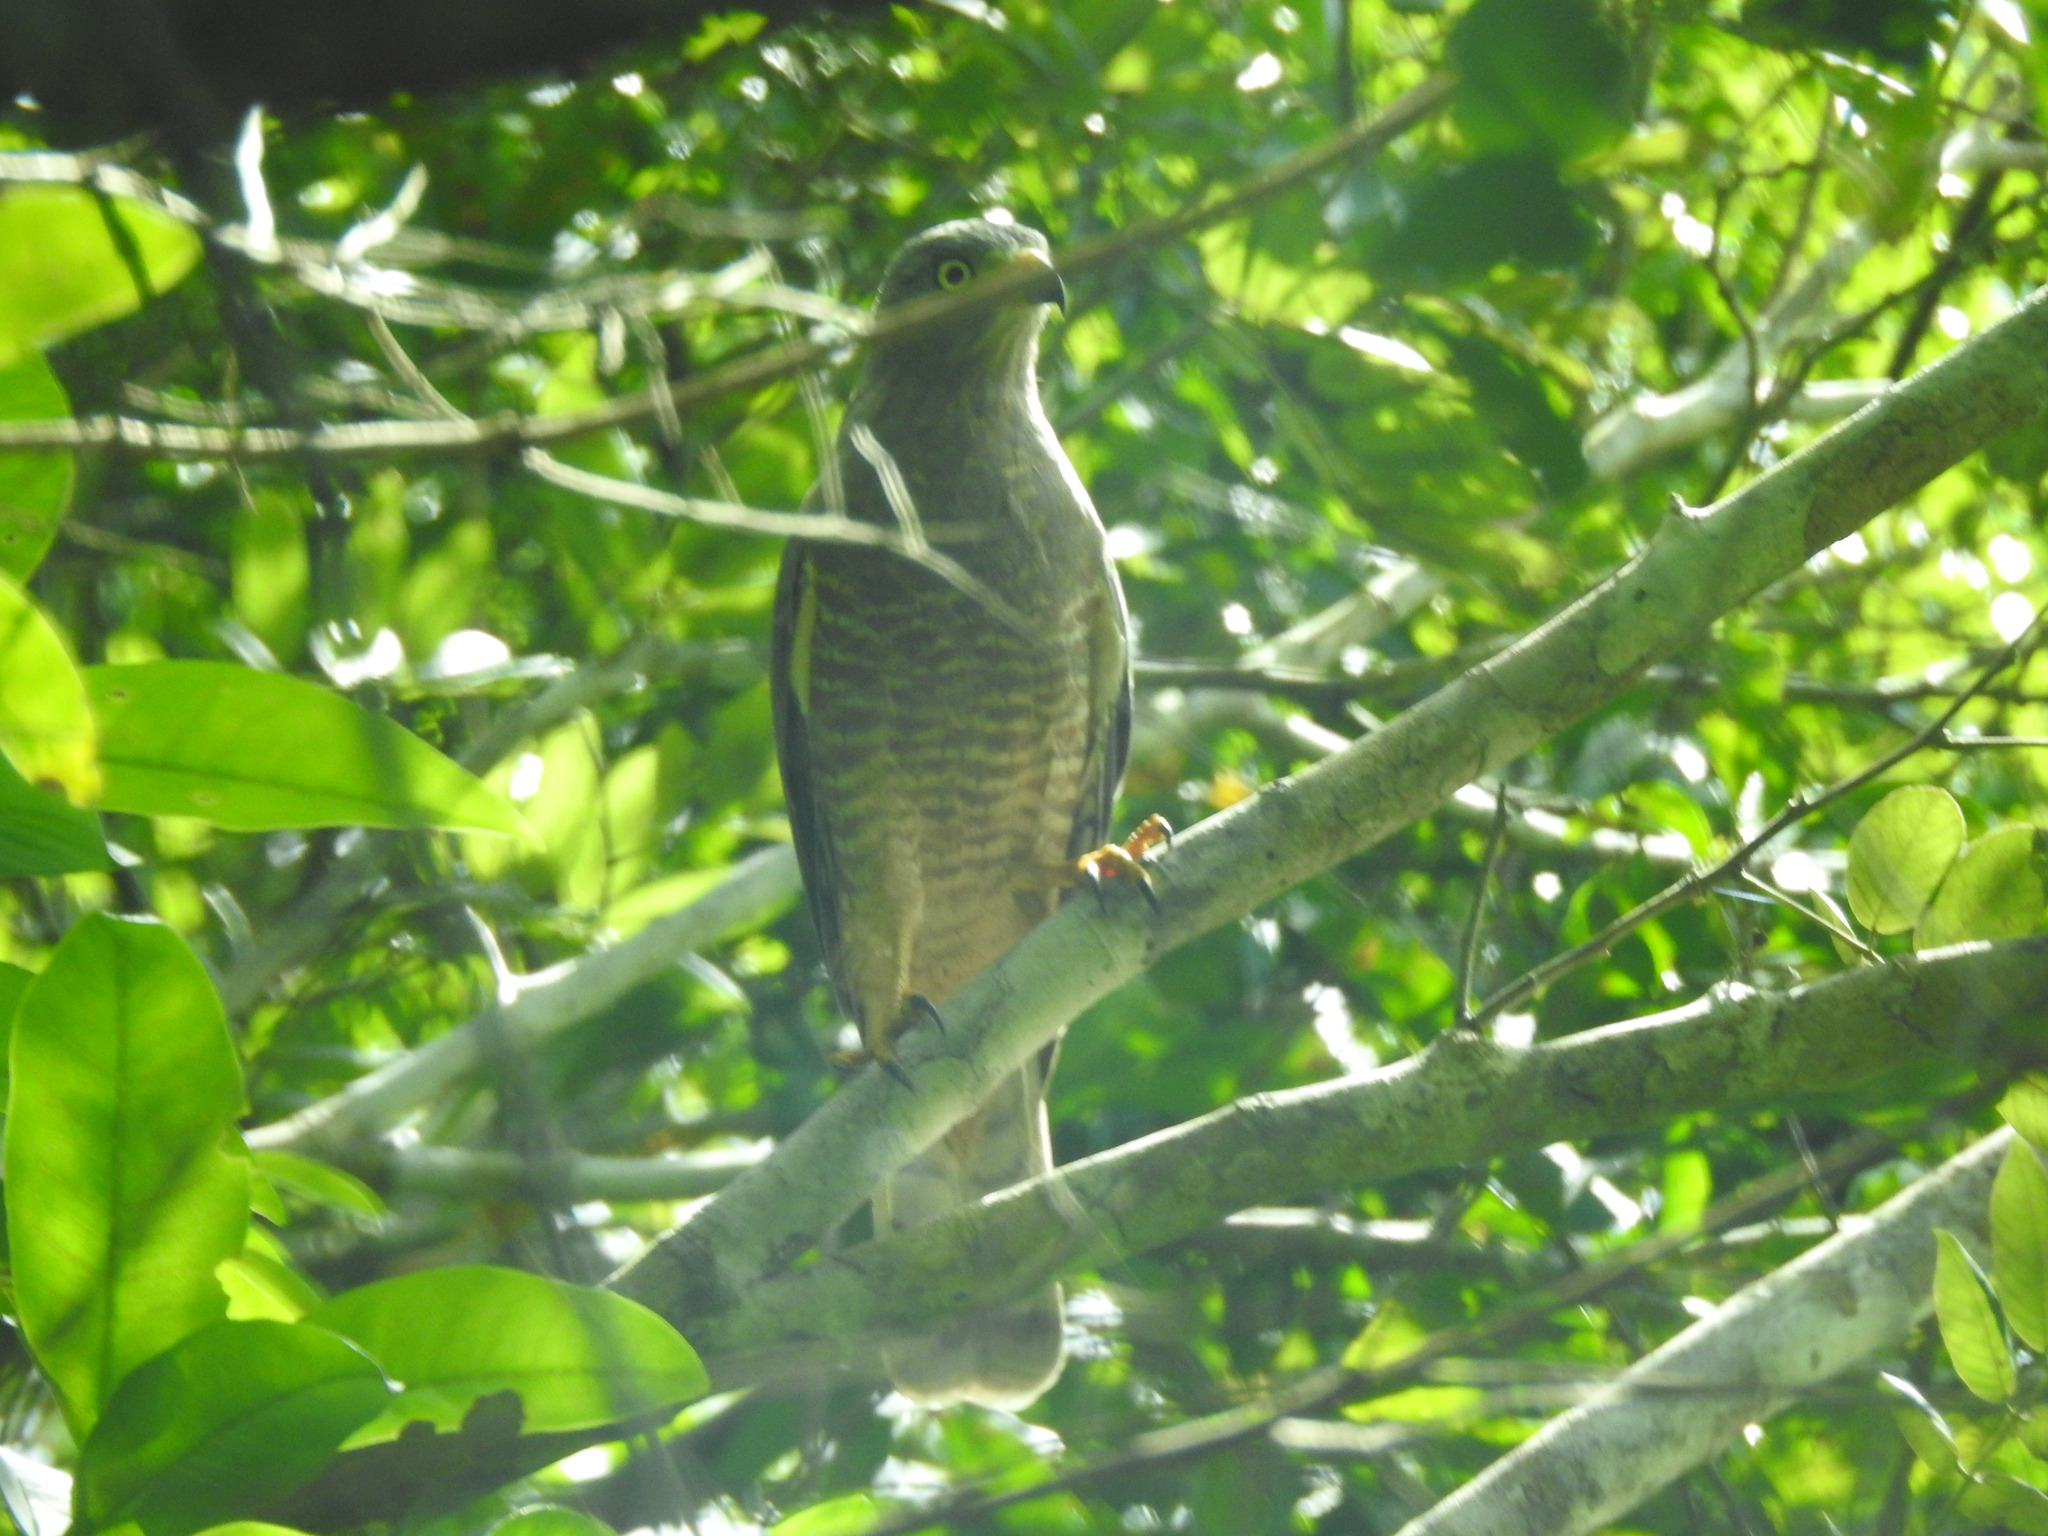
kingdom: Animalia
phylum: Chordata
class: Aves
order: Accipitriformes
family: Accipitridae
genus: Rupornis
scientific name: Rupornis magnirostris
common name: Roadside hawk
